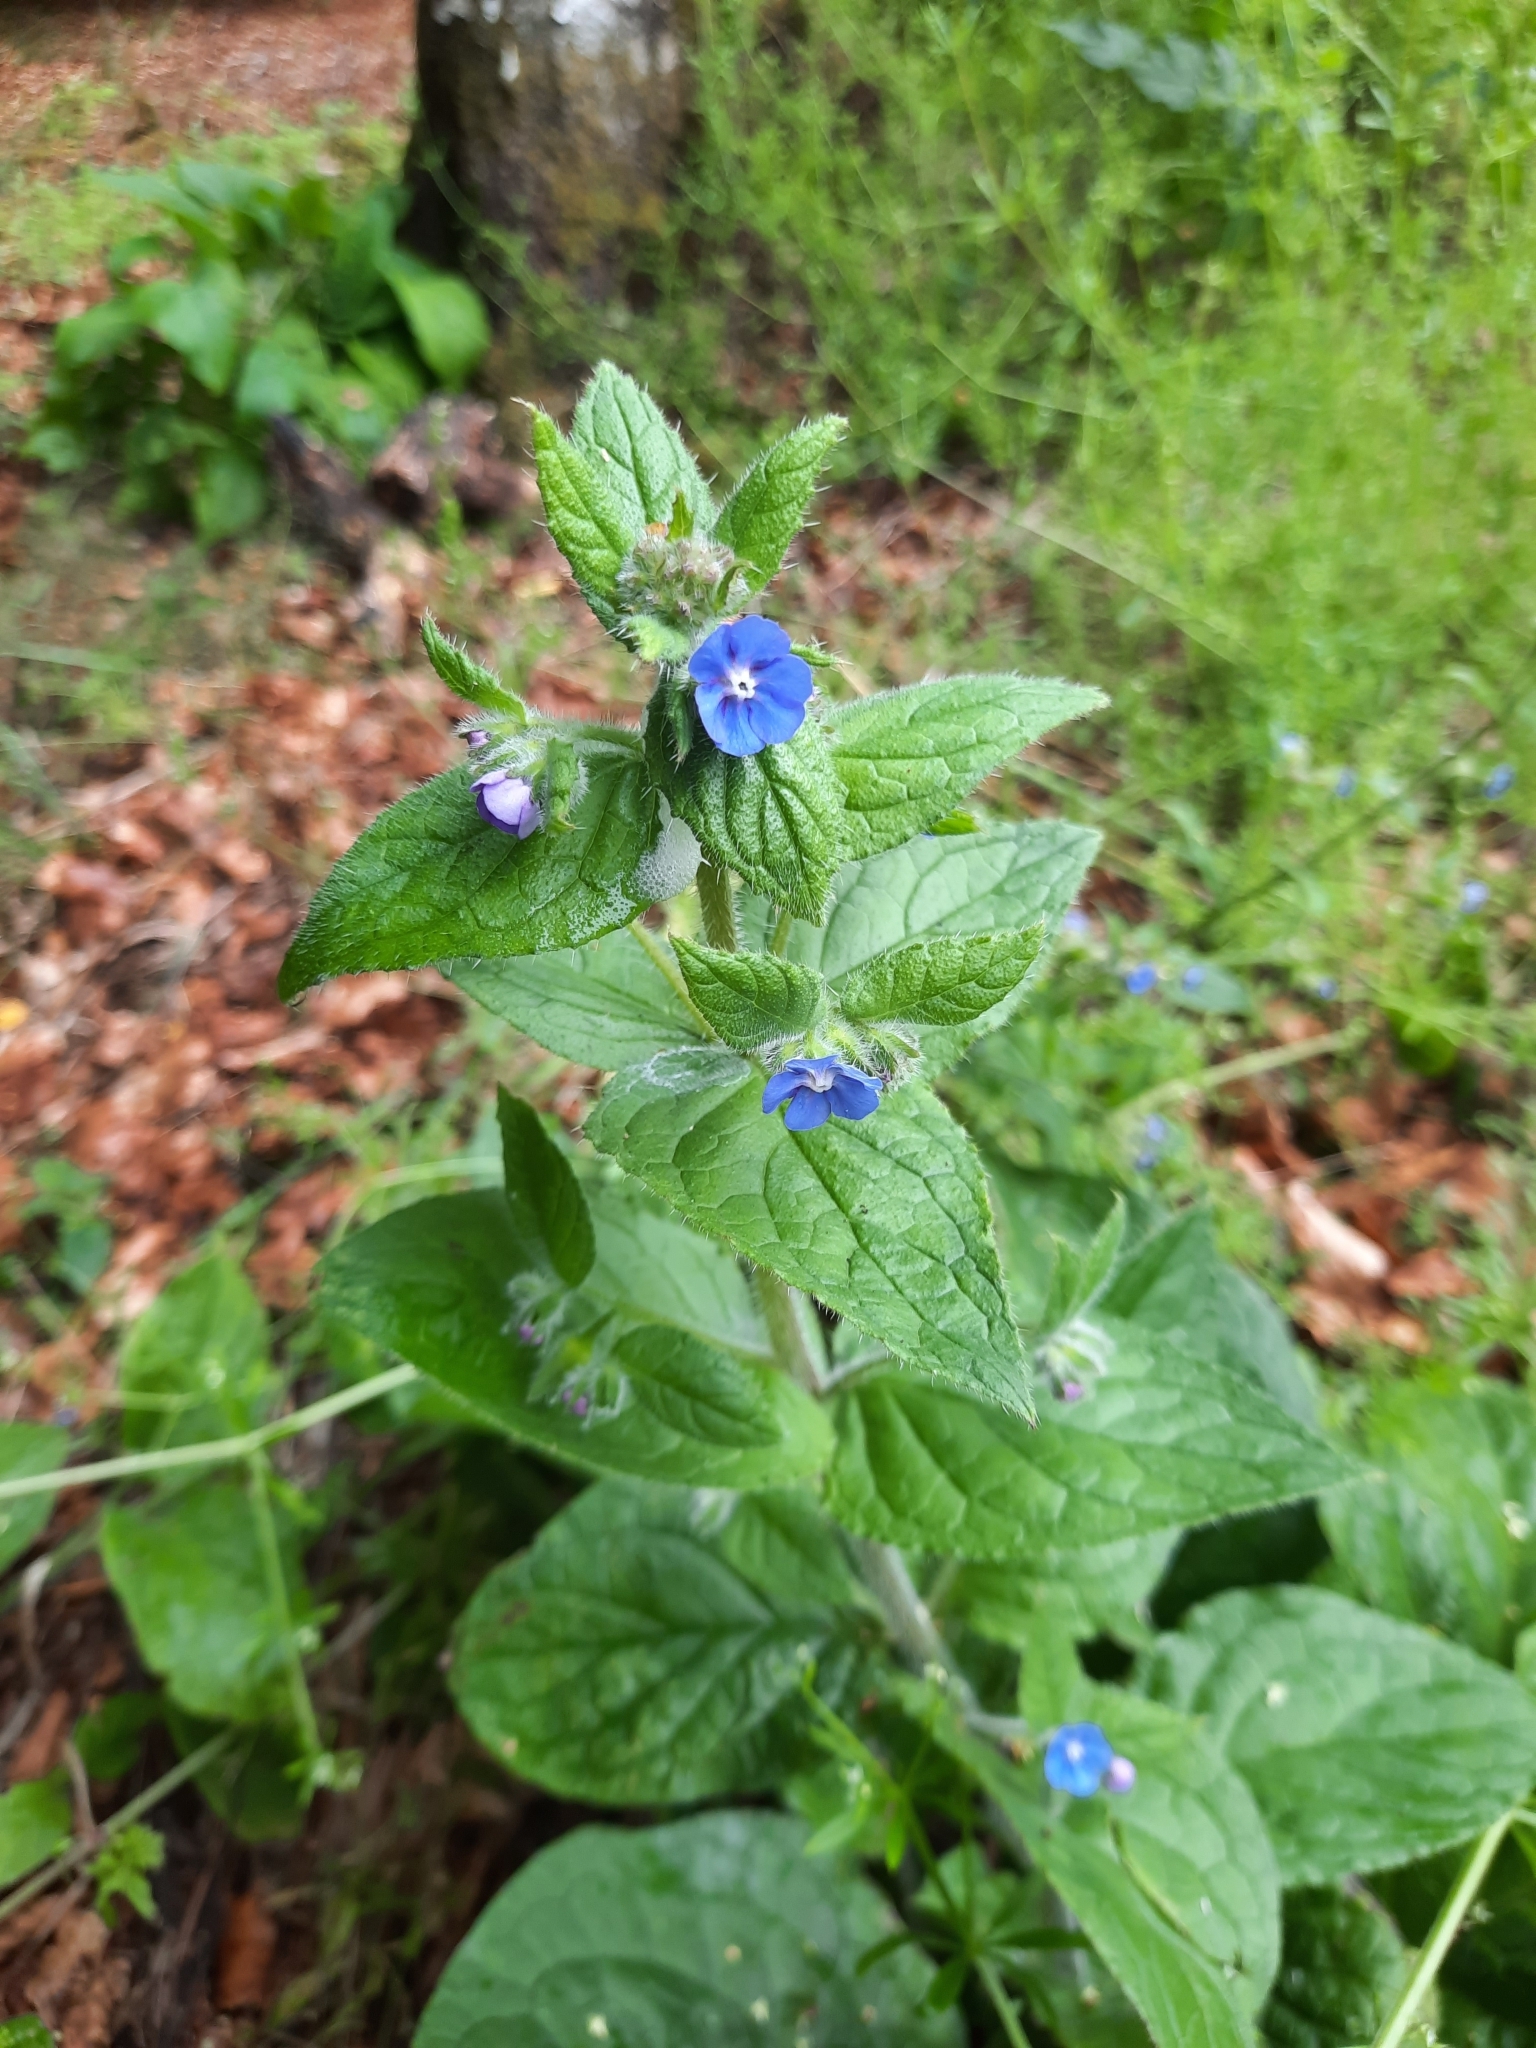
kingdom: Plantae
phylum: Tracheophyta
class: Magnoliopsida
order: Boraginales
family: Boraginaceae
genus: Pentaglottis
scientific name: Pentaglottis sempervirens
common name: Green alkanet
